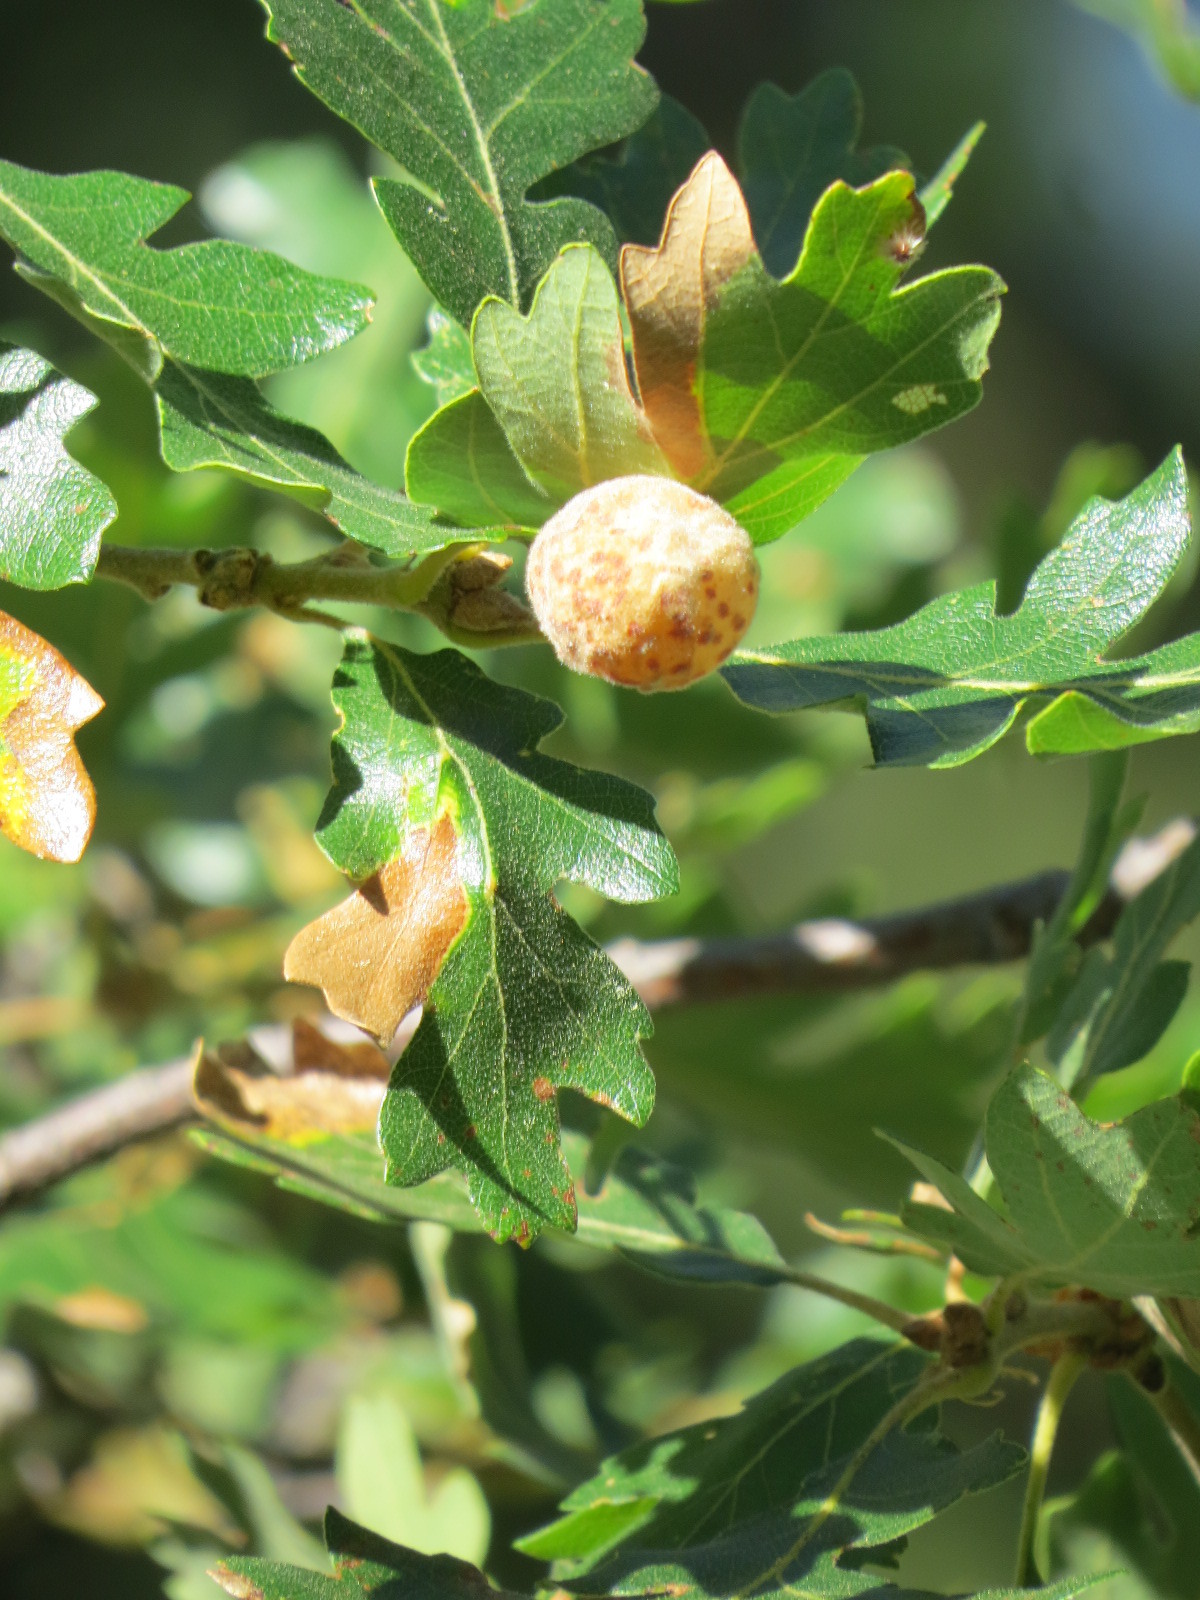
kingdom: Animalia
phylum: Arthropoda
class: Insecta
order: Hymenoptera
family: Cynipidae
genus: Cynips
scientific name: Cynips
